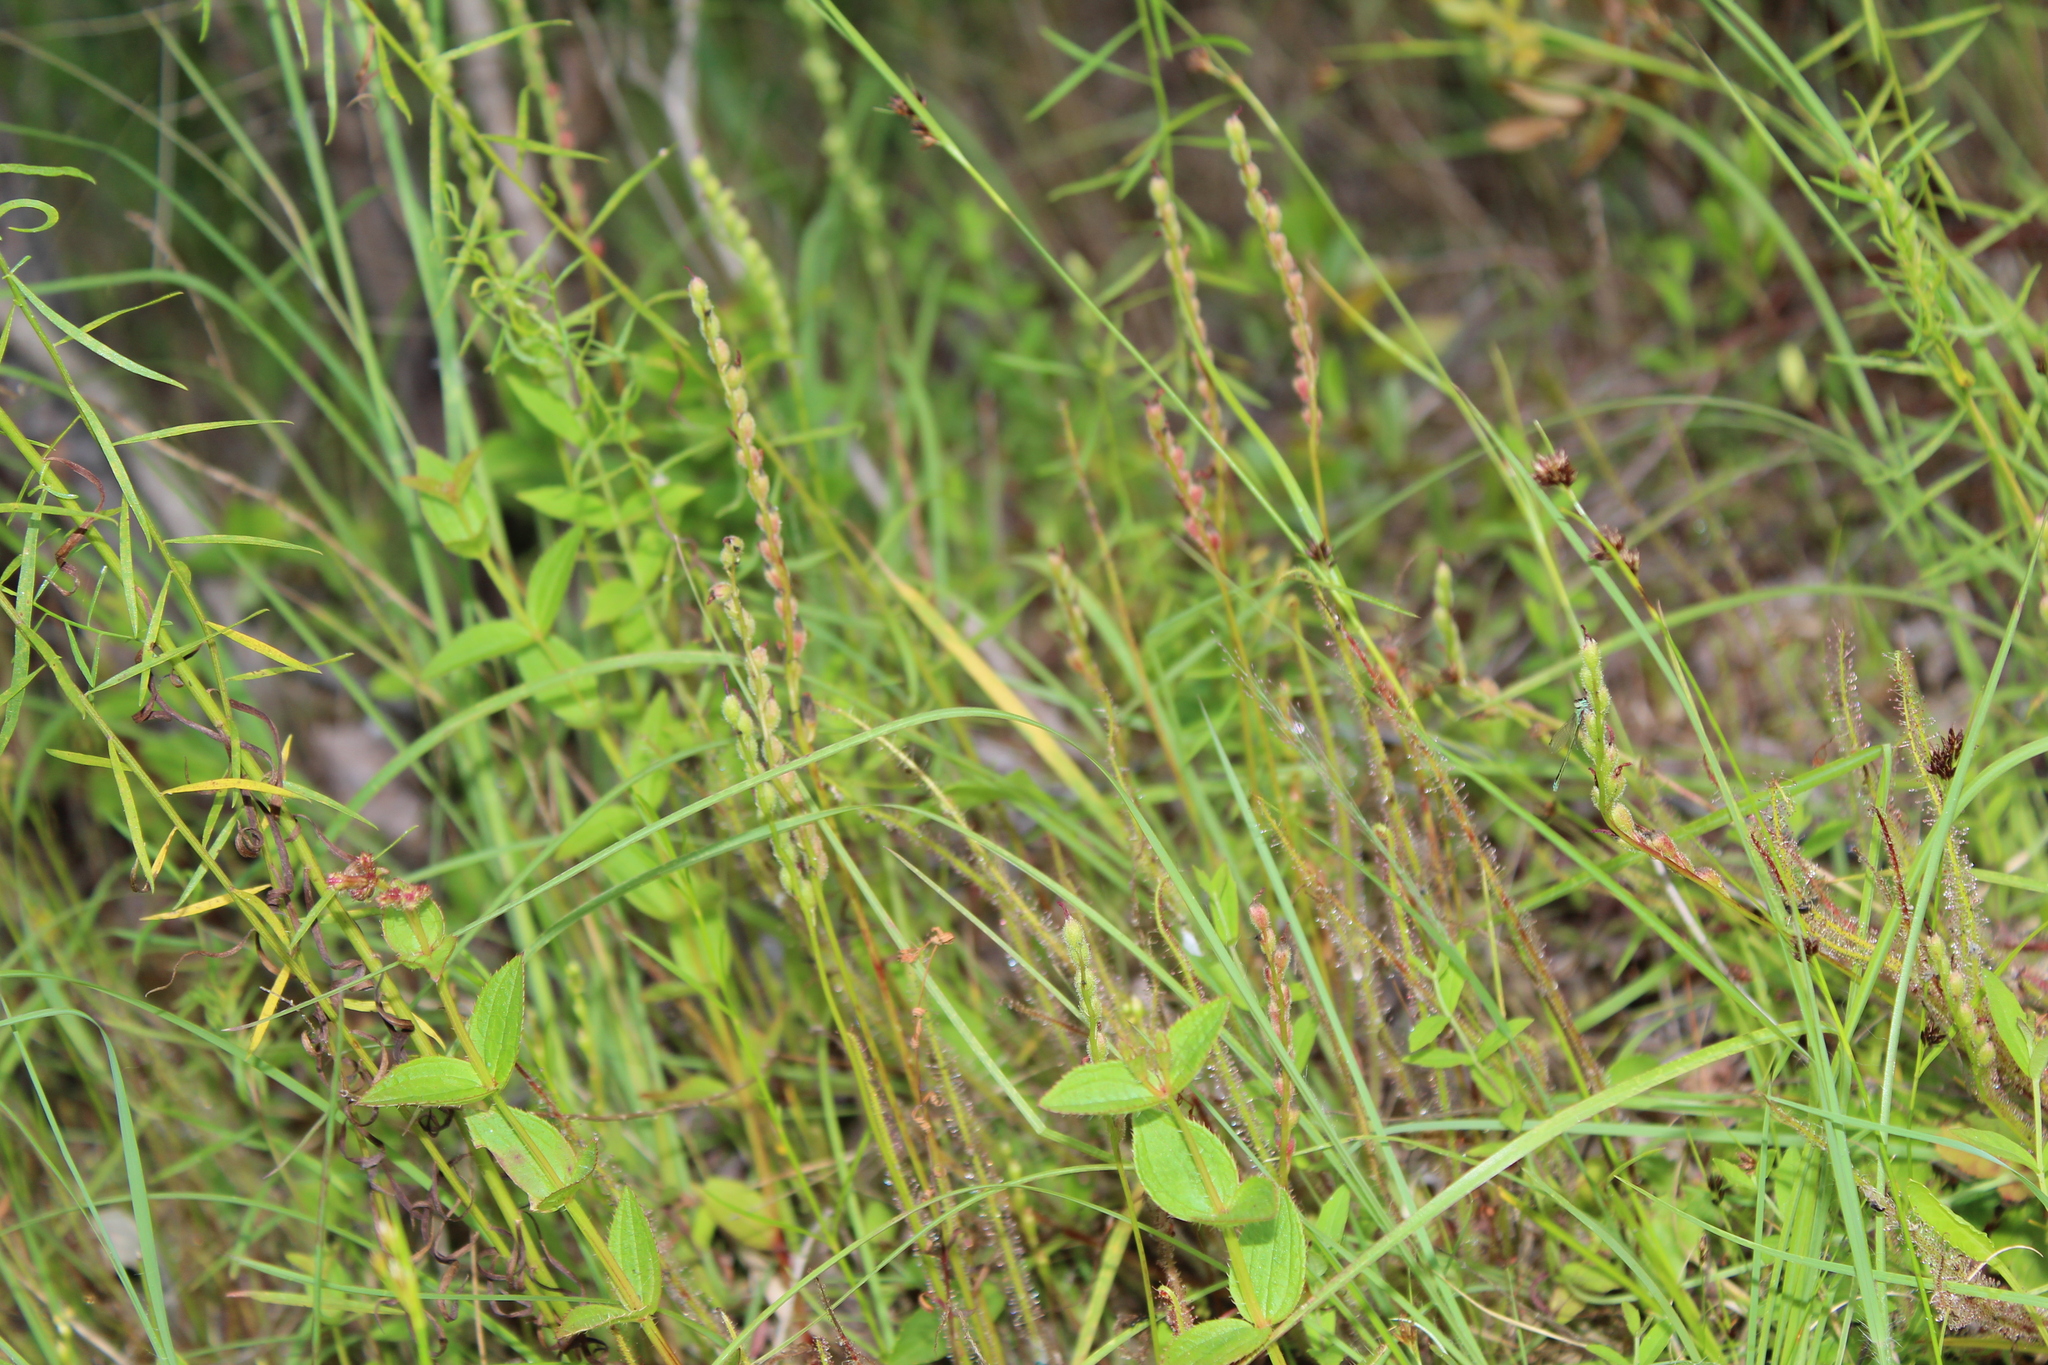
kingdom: Plantae
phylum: Tracheophyta
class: Magnoliopsida
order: Caryophyllales
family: Droseraceae
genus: Drosera
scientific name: Drosera filiformis
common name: Dew-thread
